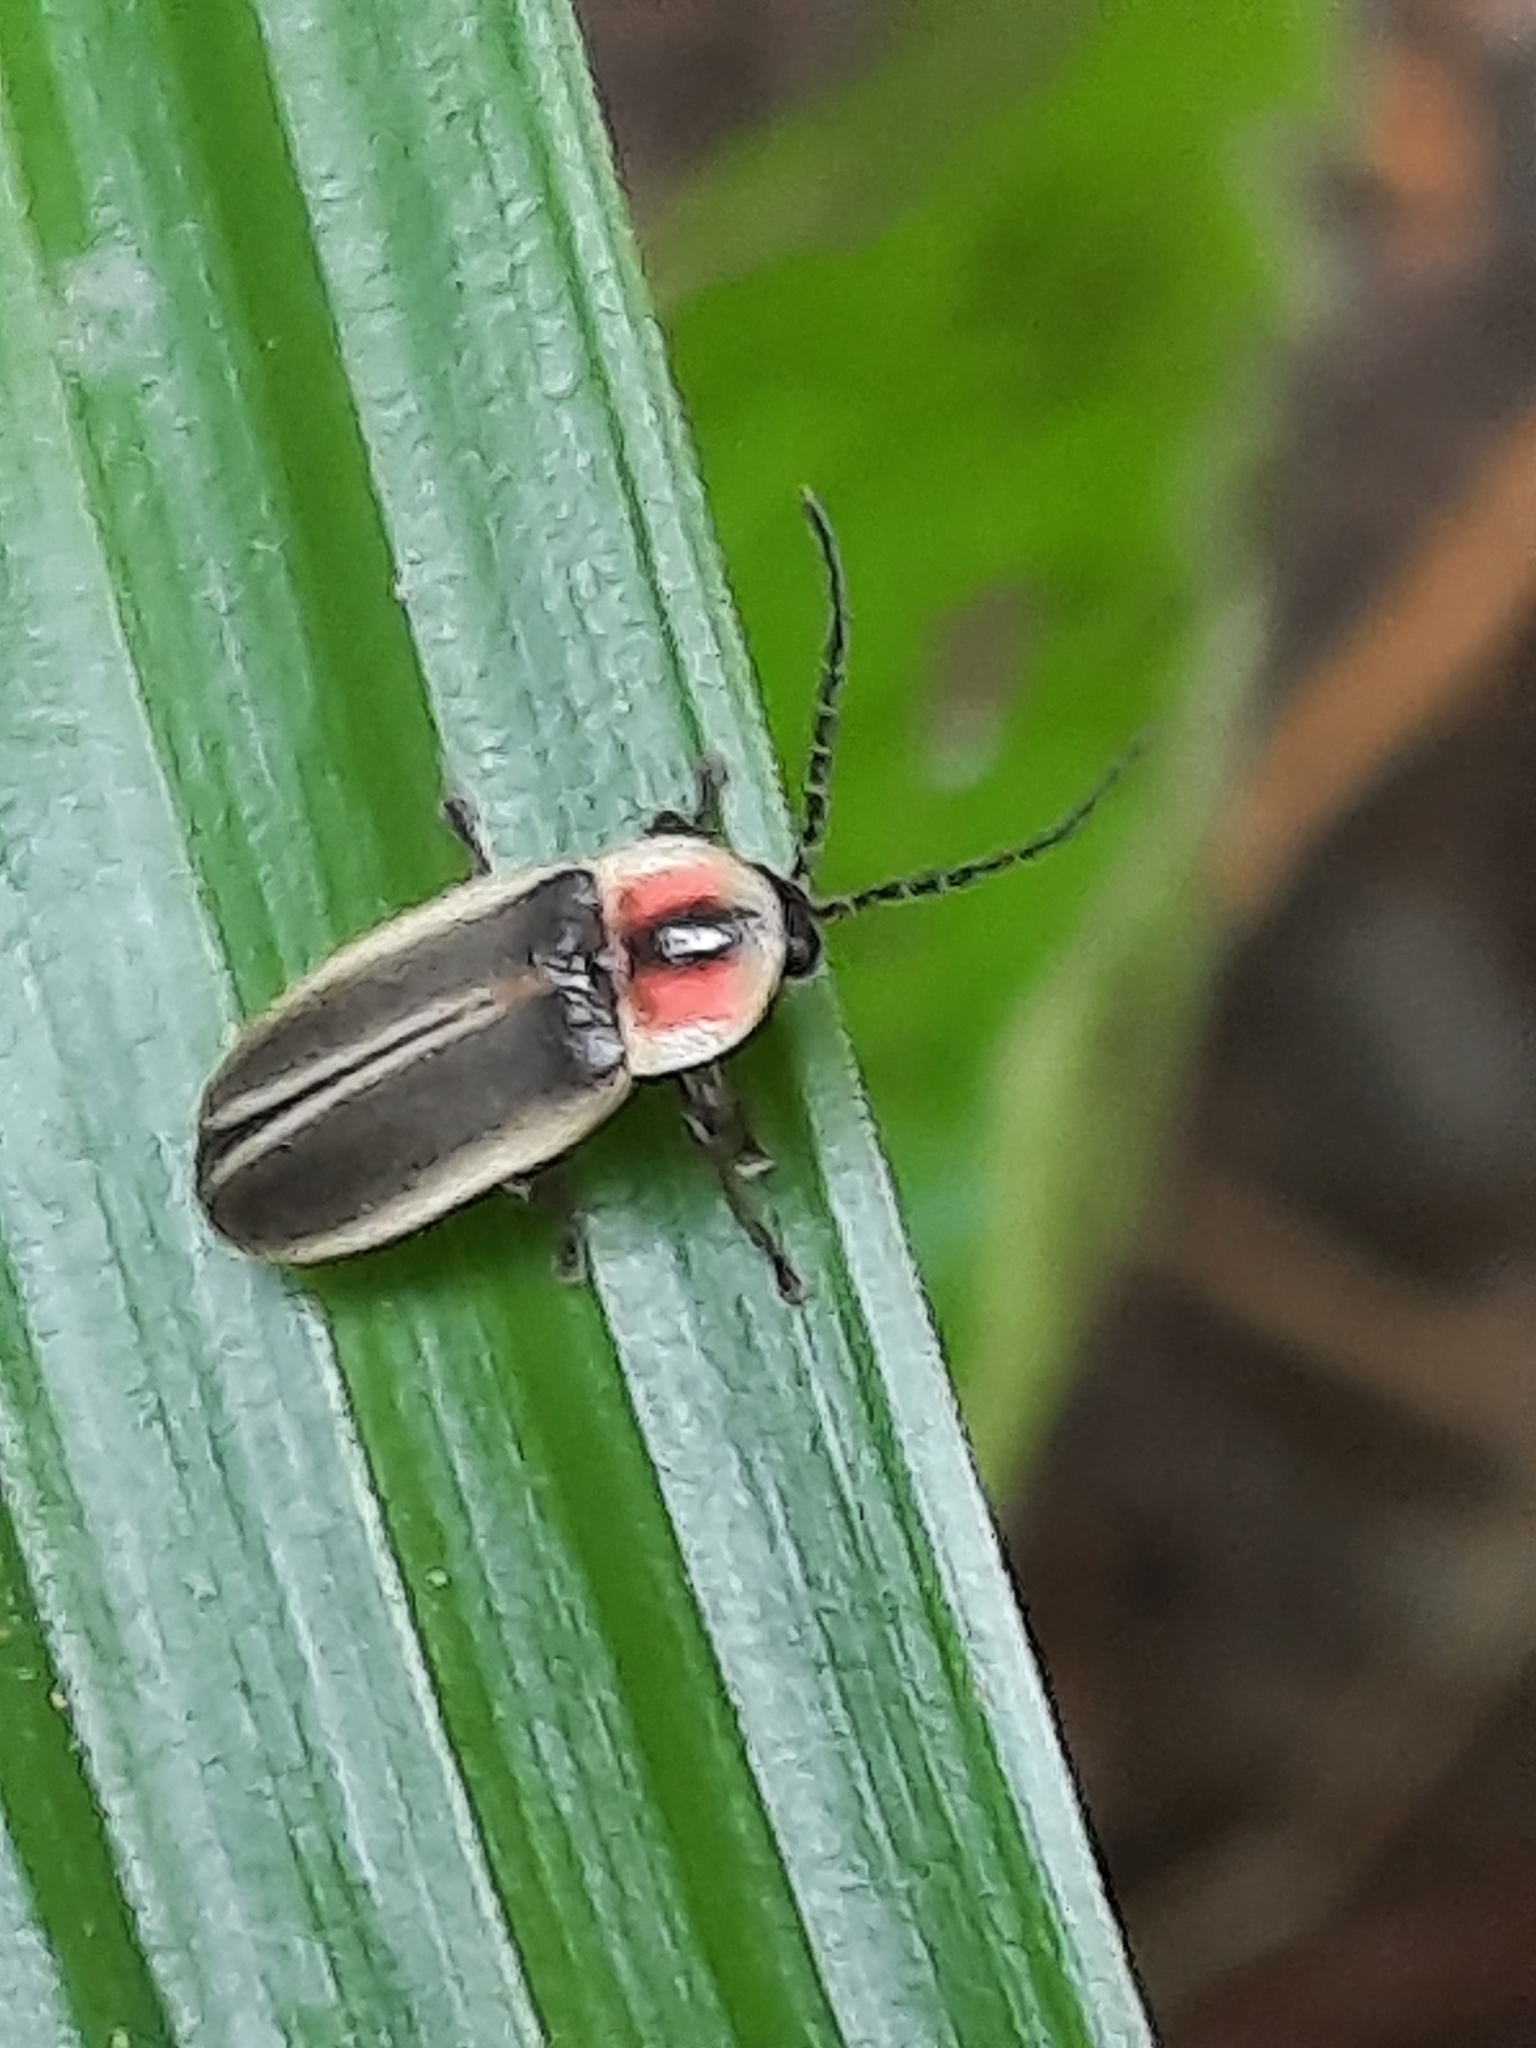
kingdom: Animalia
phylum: Arthropoda
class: Insecta
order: Coleoptera
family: Lampyridae
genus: Photinus
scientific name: Photinus pyralis
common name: Big dipper firefly
